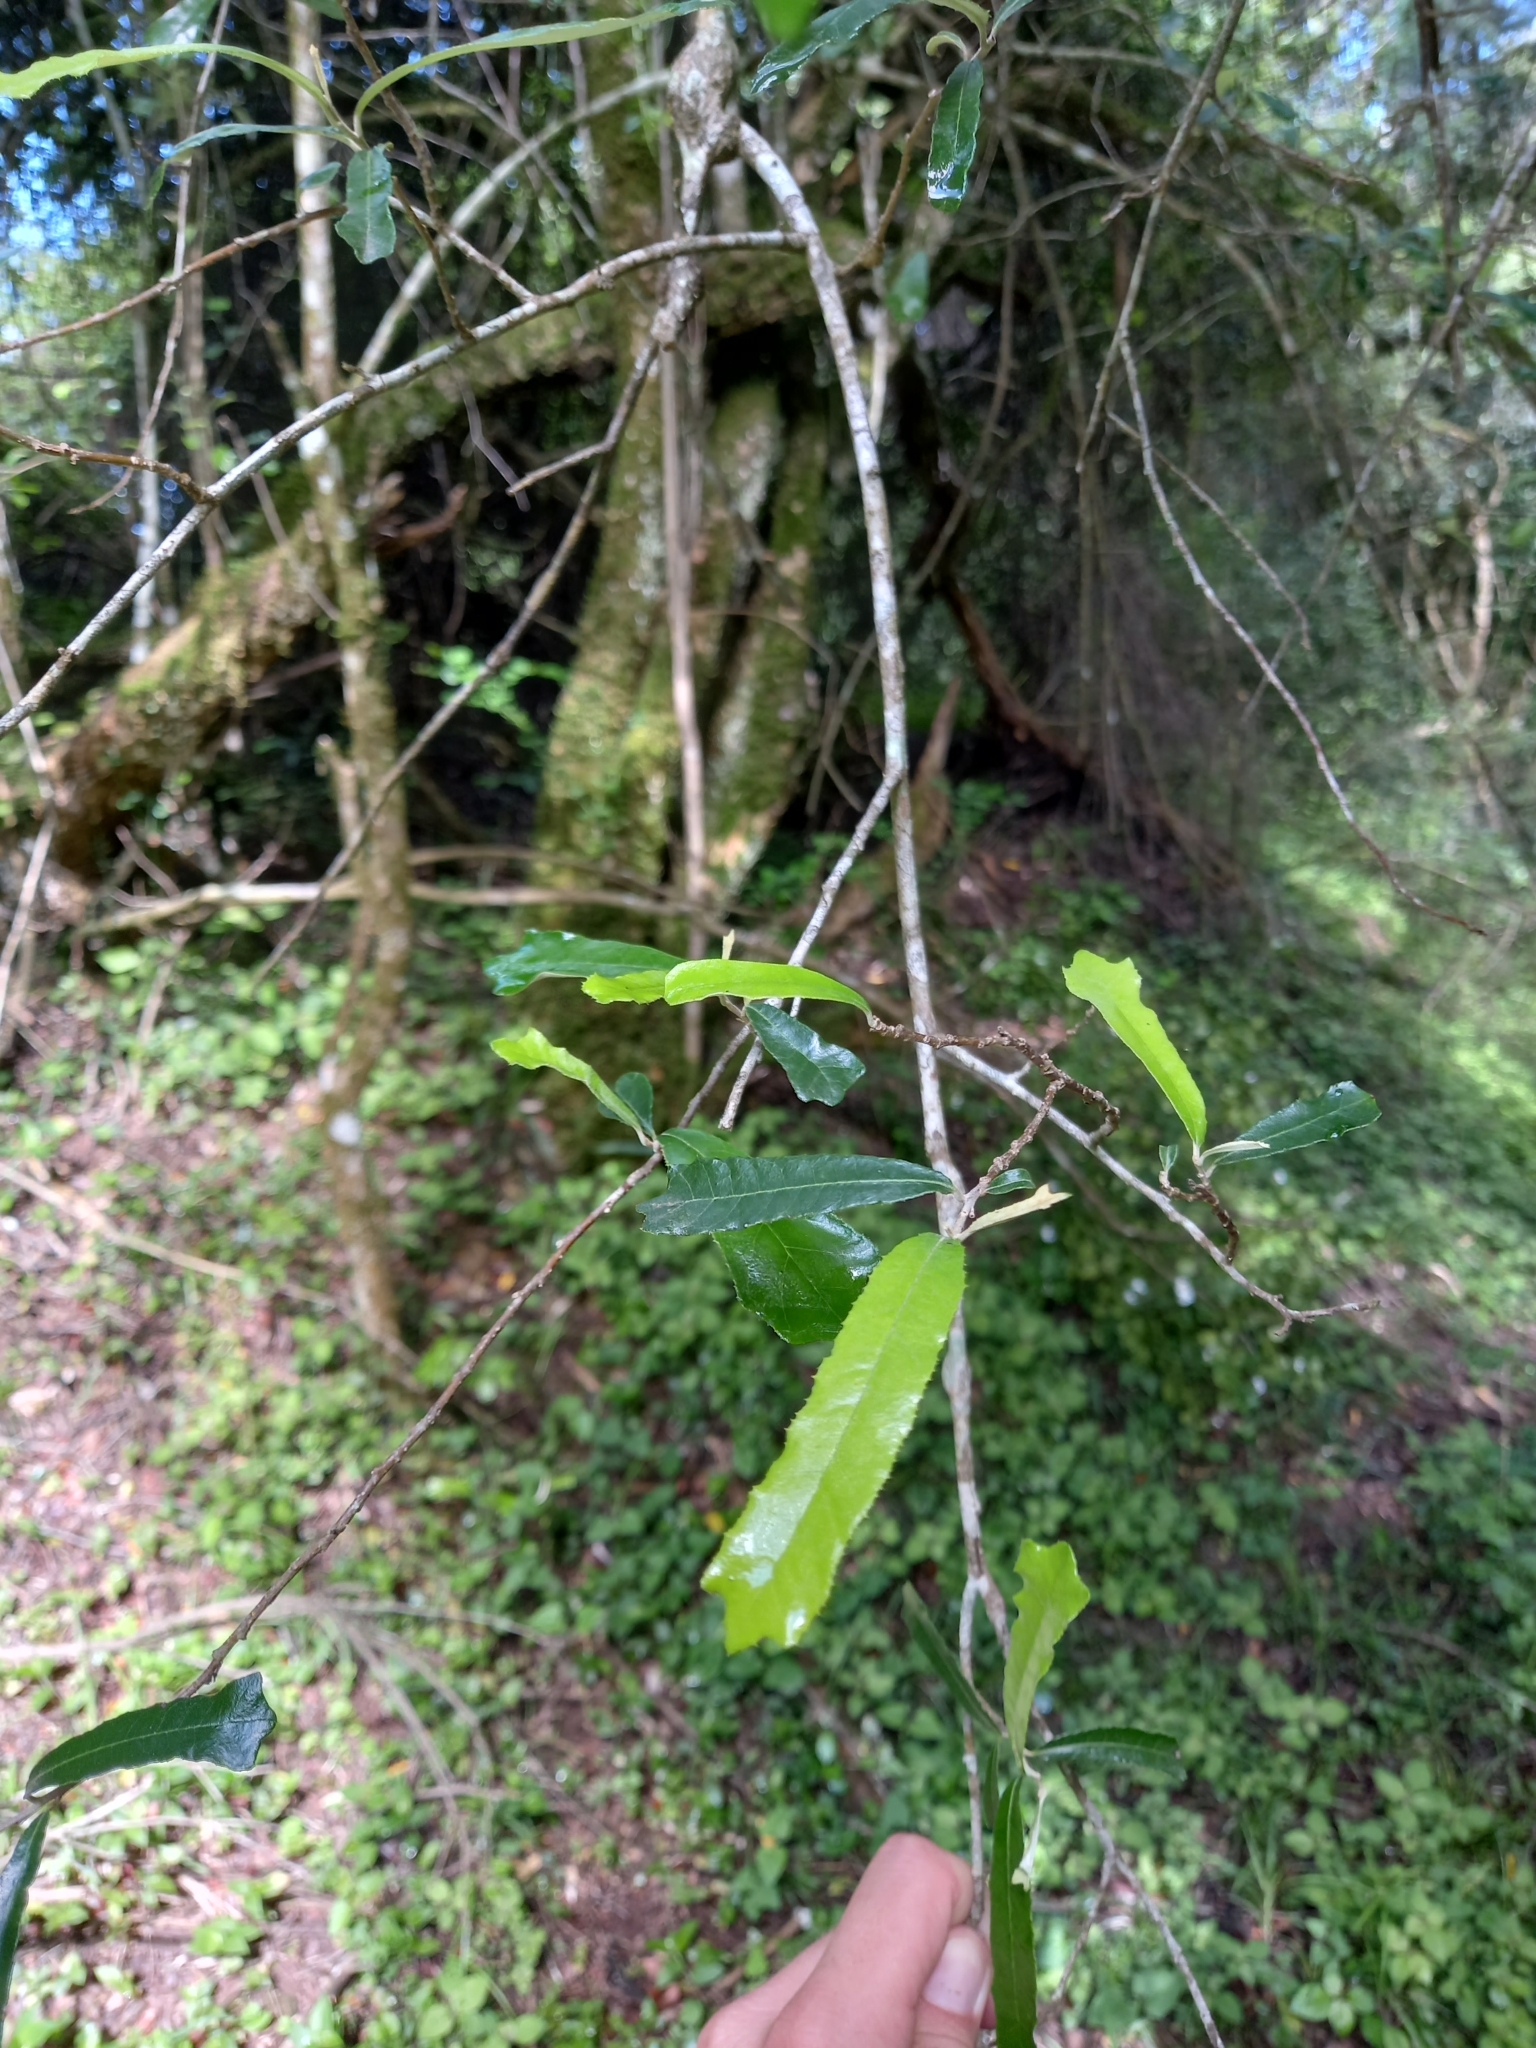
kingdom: Plantae
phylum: Tracheophyta
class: Magnoliopsida
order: Asterales
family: Asteraceae
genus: Brachylaena
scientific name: Brachylaena elliptica
